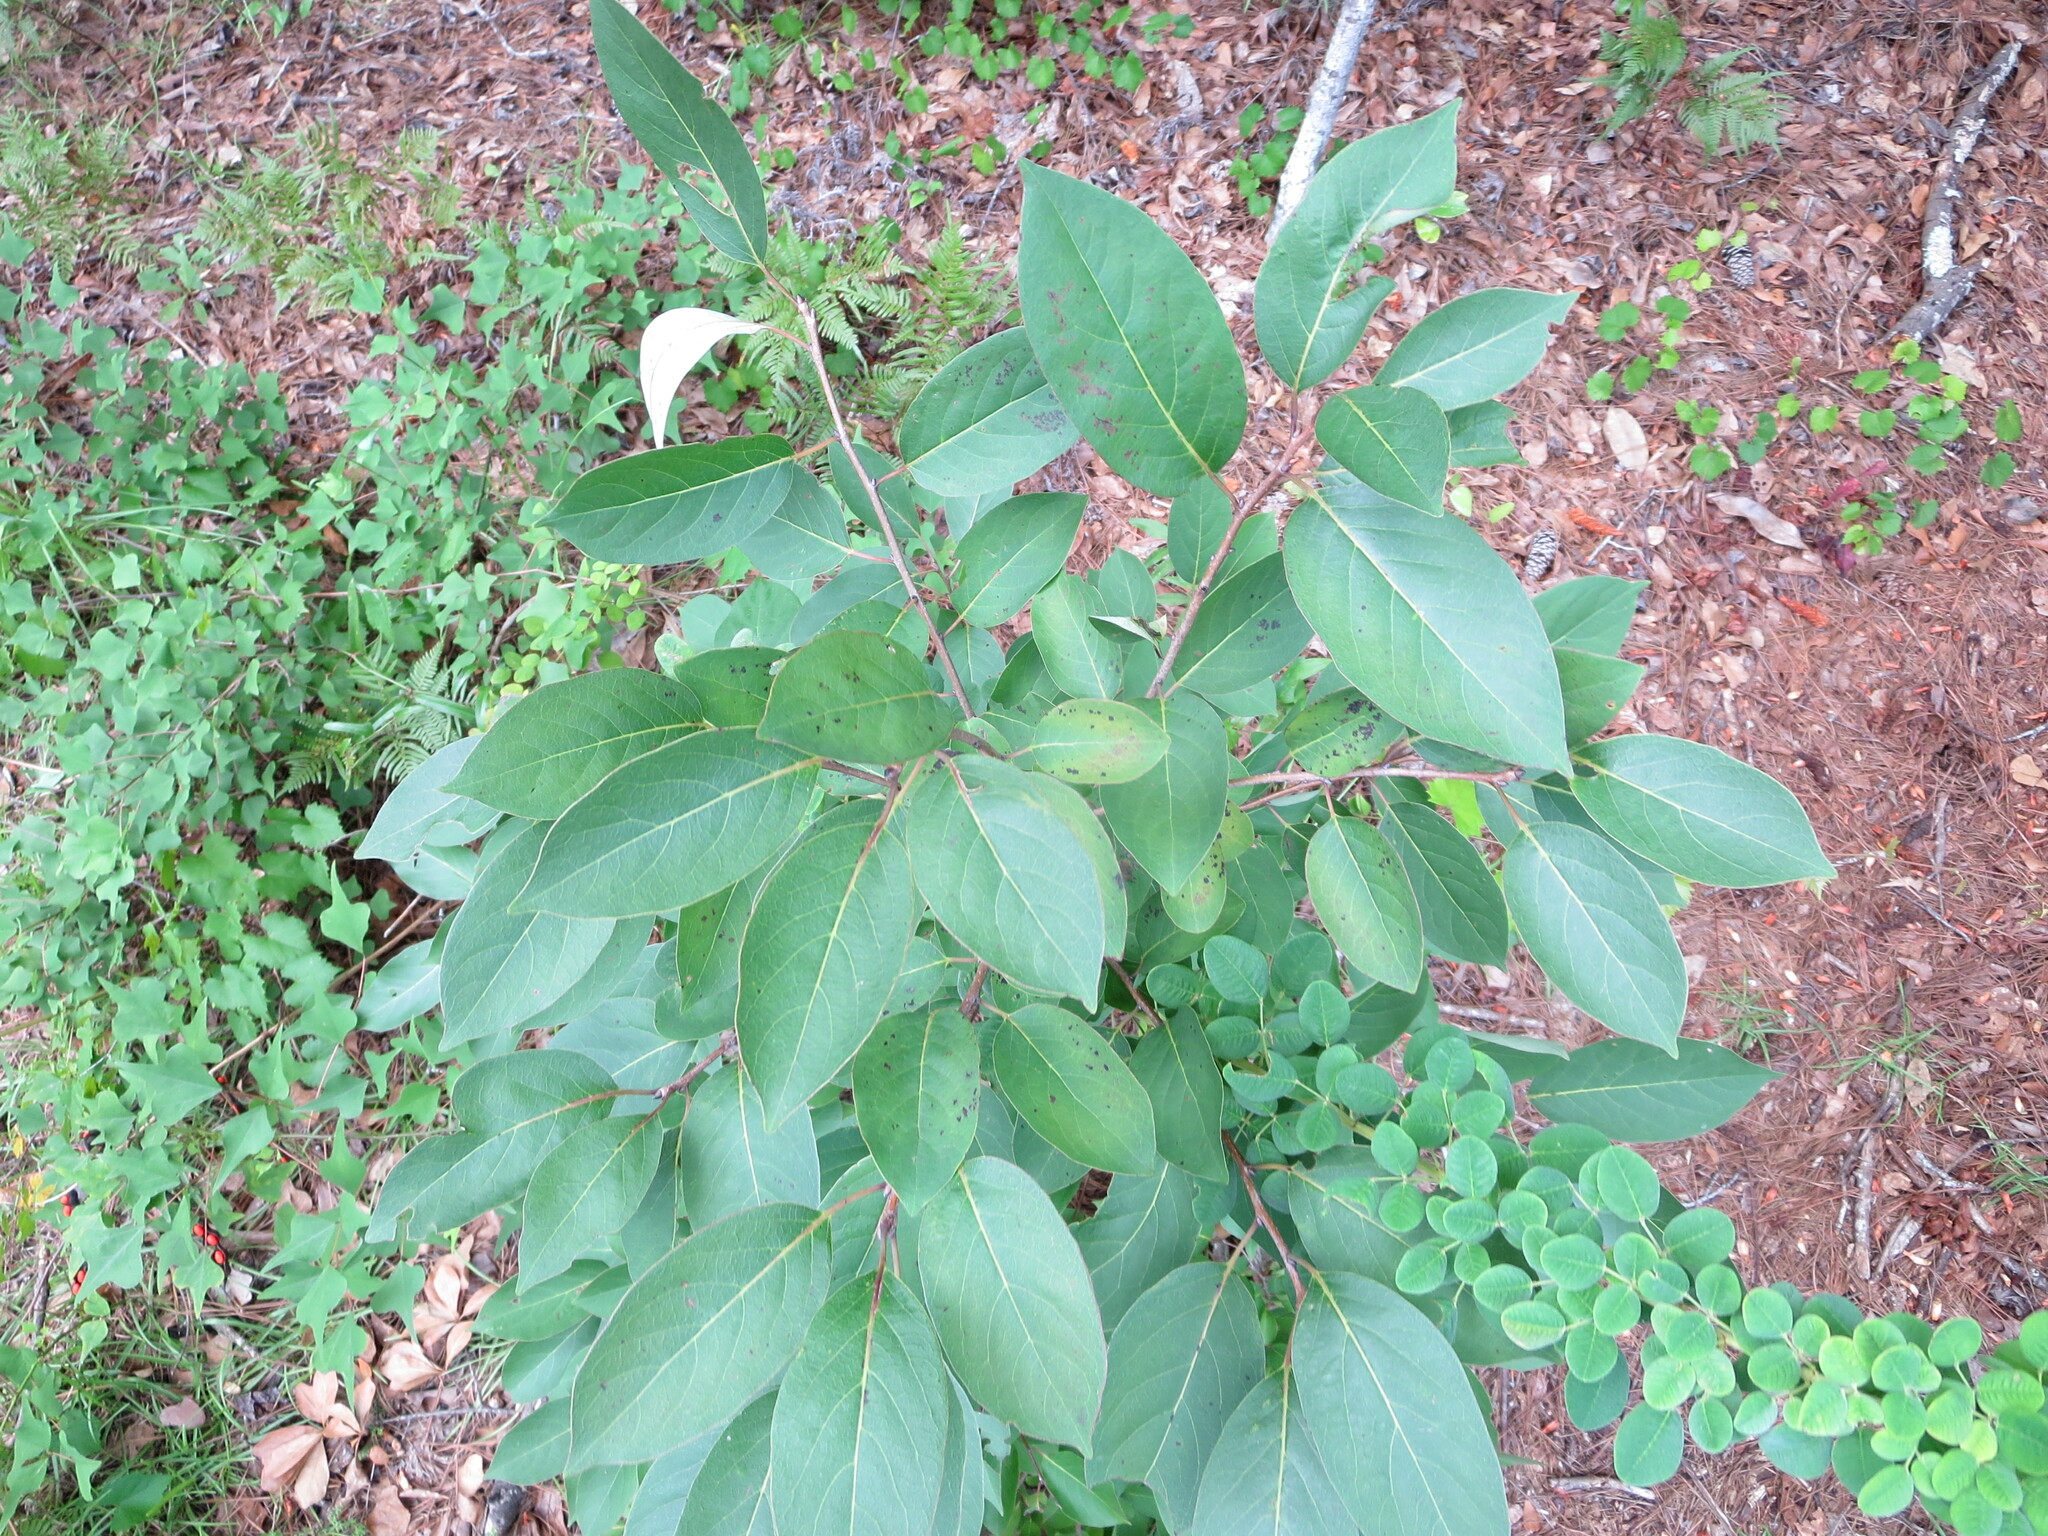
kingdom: Plantae
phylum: Tracheophyta
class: Magnoliopsida
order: Ericales
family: Ebenaceae
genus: Diospyros
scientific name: Diospyros virginiana
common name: Persimmon
